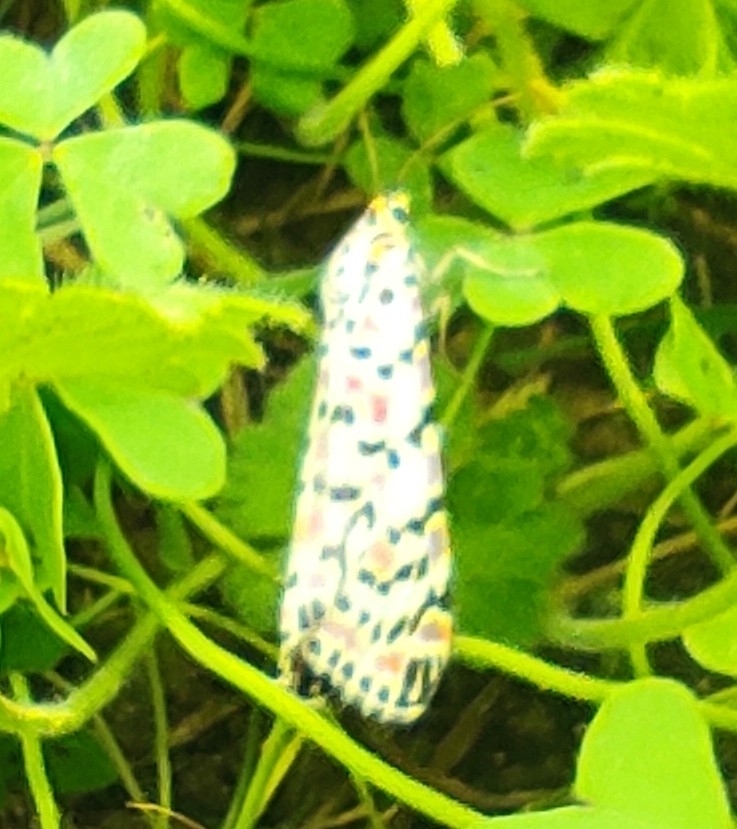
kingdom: Animalia
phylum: Arthropoda
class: Insecta
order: Lepidoptera
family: Erebidae
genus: Utetheisa
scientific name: Utetheisa pulchella
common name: Crimson speckled
